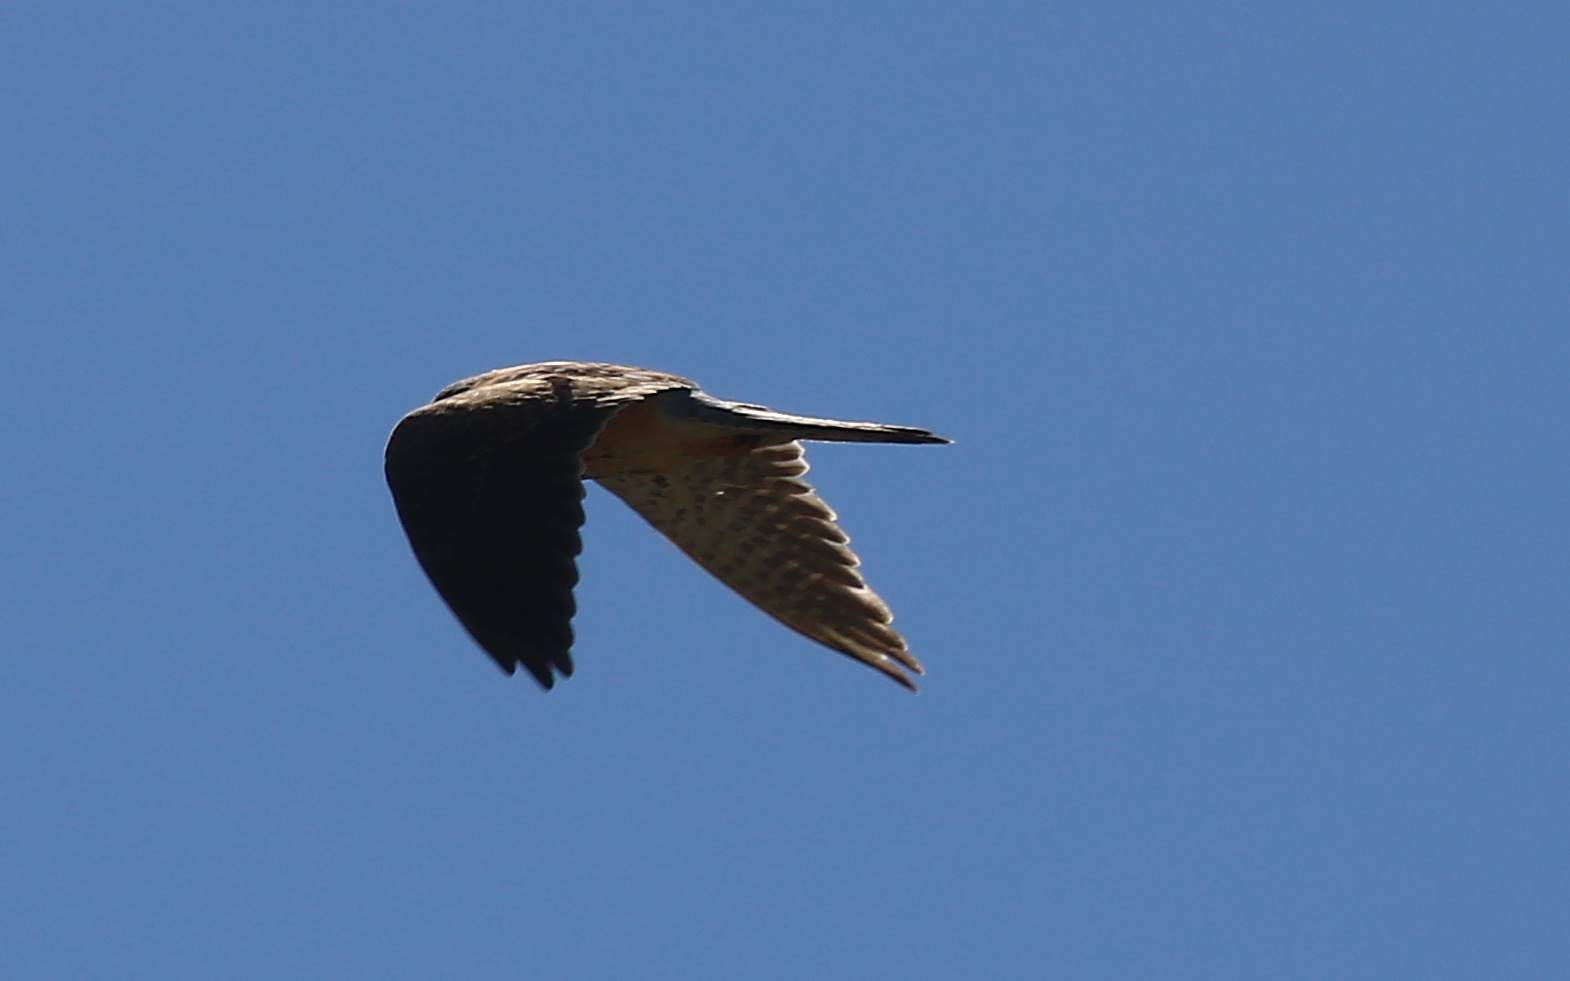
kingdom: Animalia
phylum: Chordata
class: Aves
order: Falconiformes
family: Falconidae
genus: Falco
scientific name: Falco tinnunculus
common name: Common kestrel
